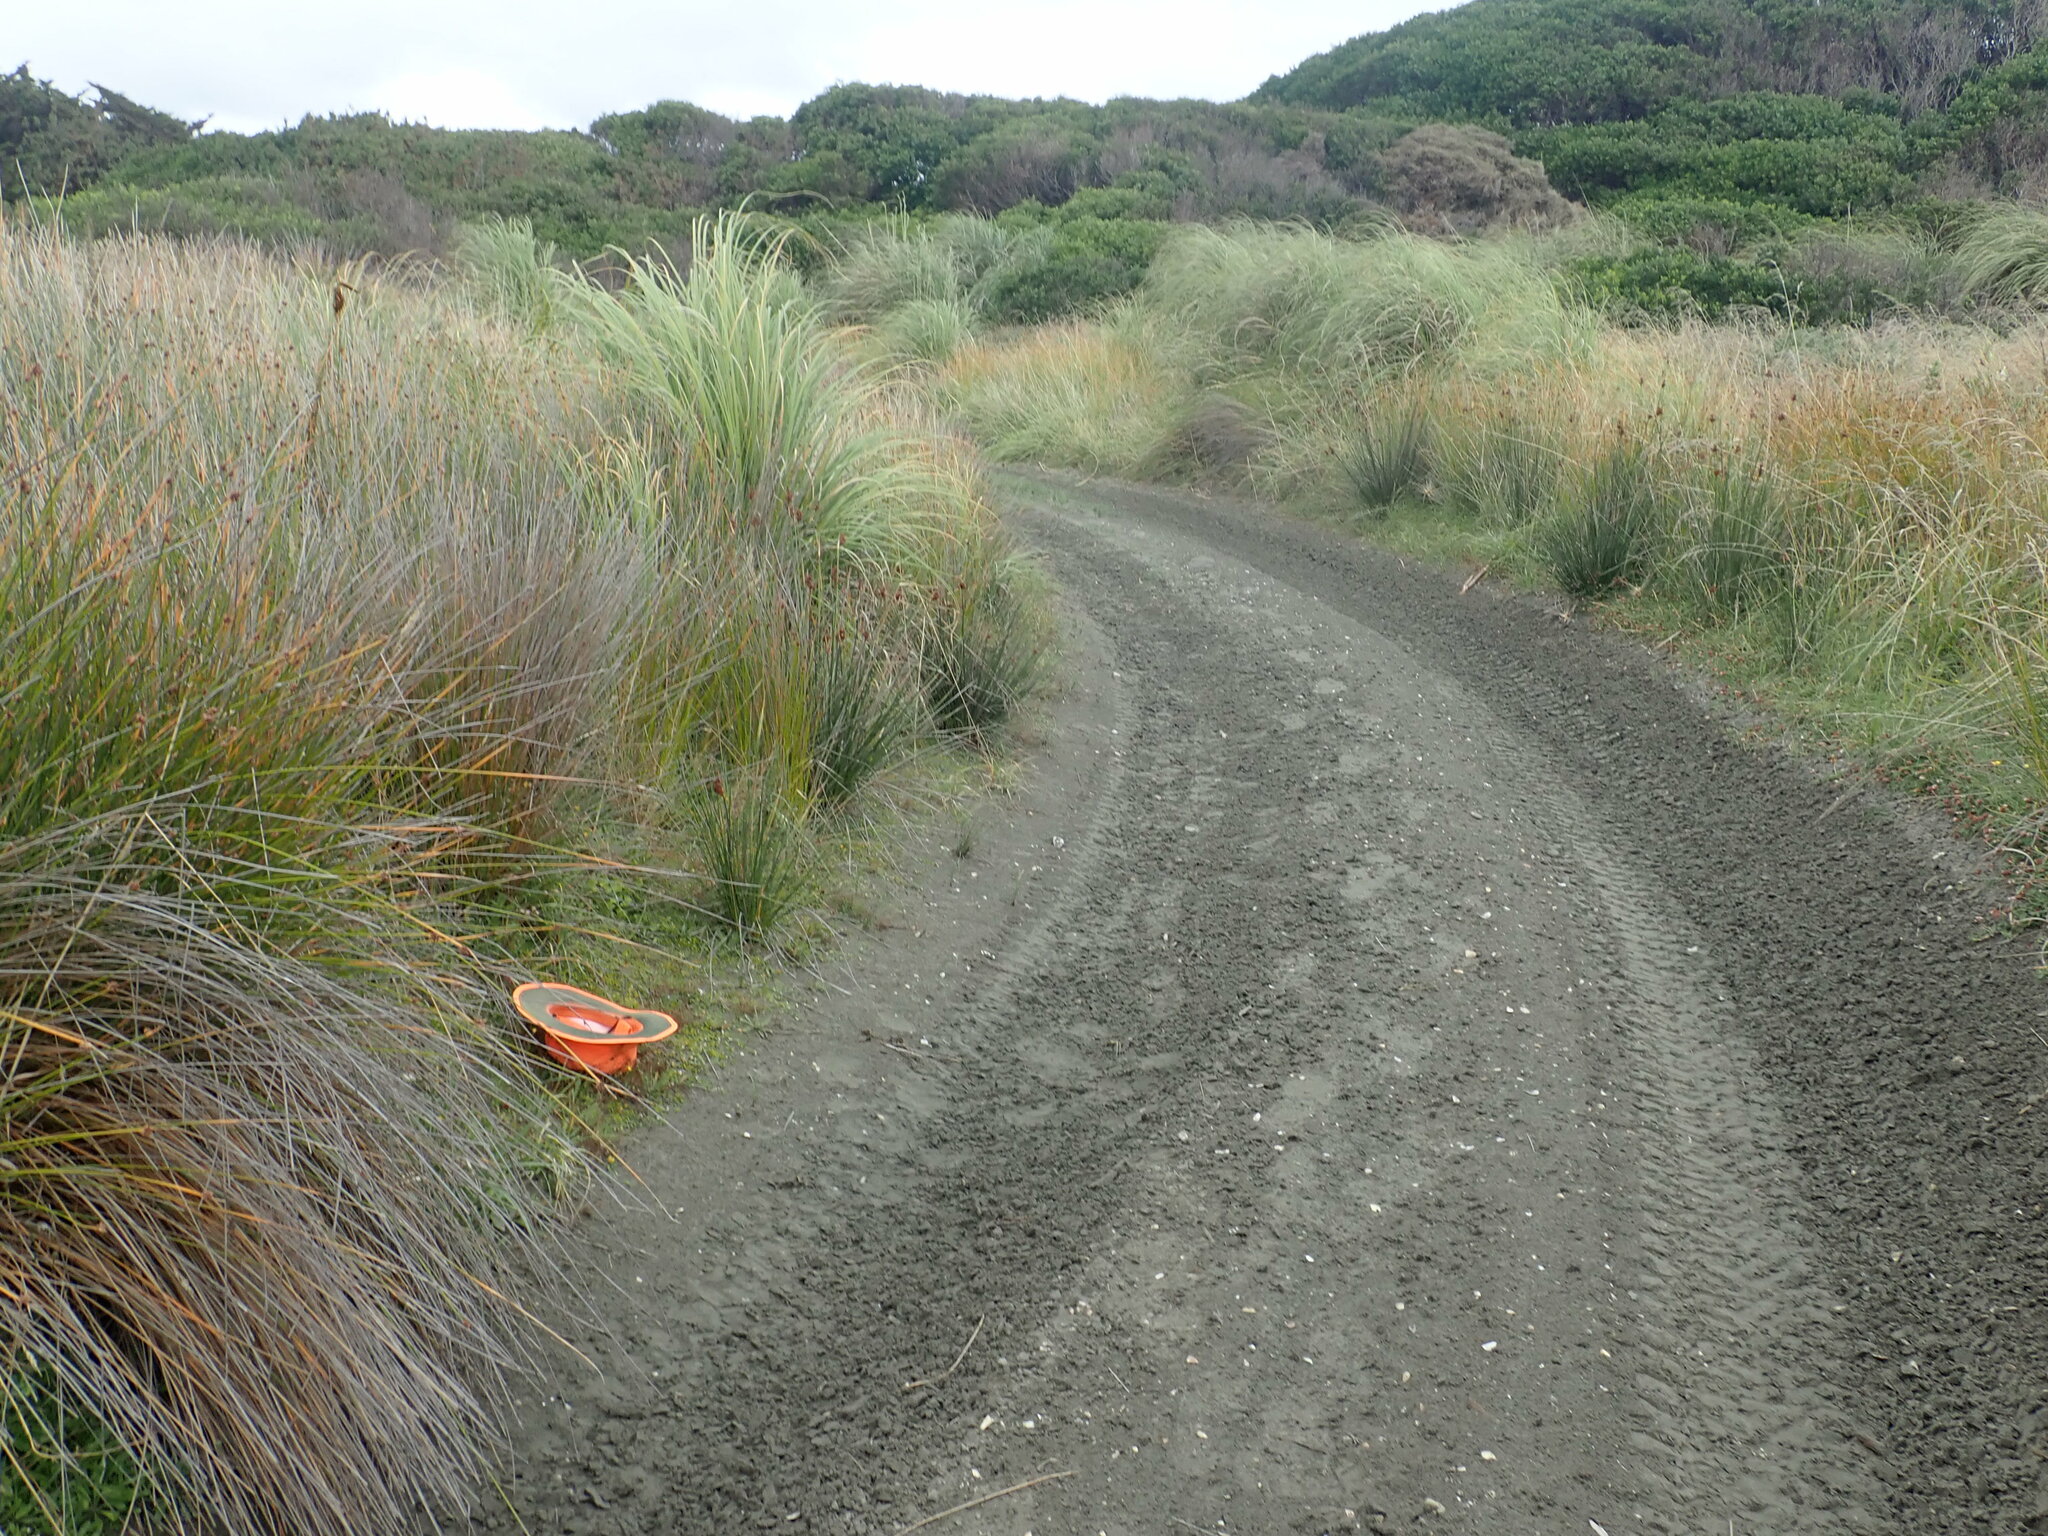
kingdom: Plantae
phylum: Tracheophyta
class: Magnoliopsida
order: Asterales
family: Goodeniaceae
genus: Goodenia
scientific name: Goodenia heenanii
